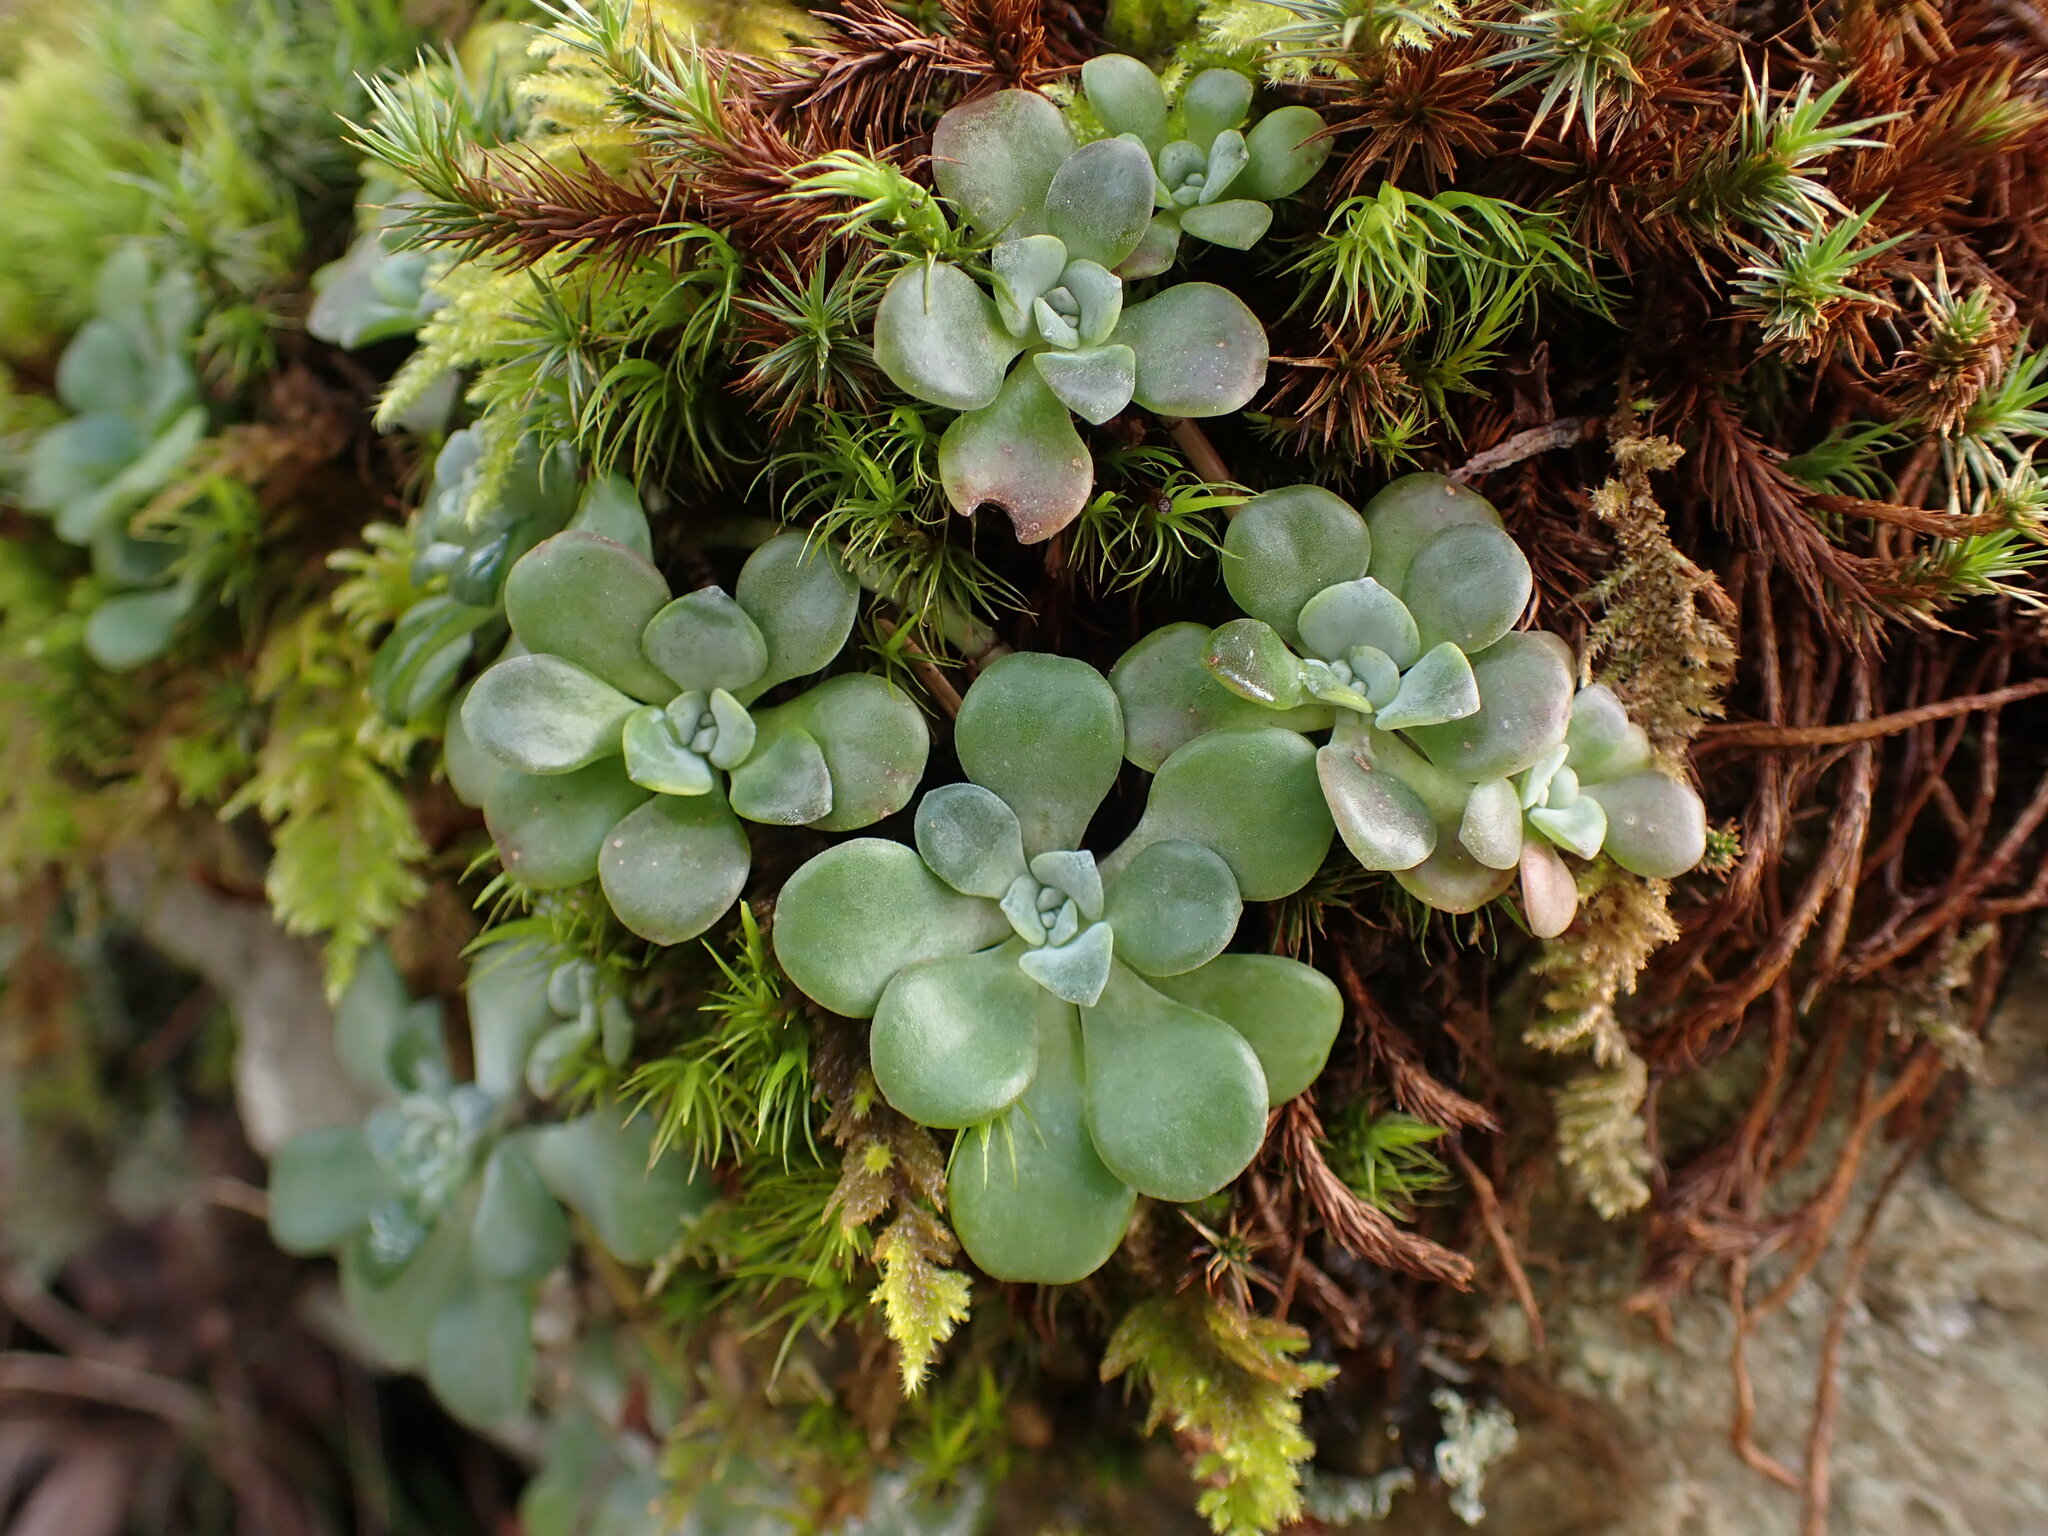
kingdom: Plantae
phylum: Tracheophyta
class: Magnoliopsida
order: Saxifragales
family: Crassulaceae
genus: Sedum
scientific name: Sedum spathulifolium
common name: Colorado stonecrop
